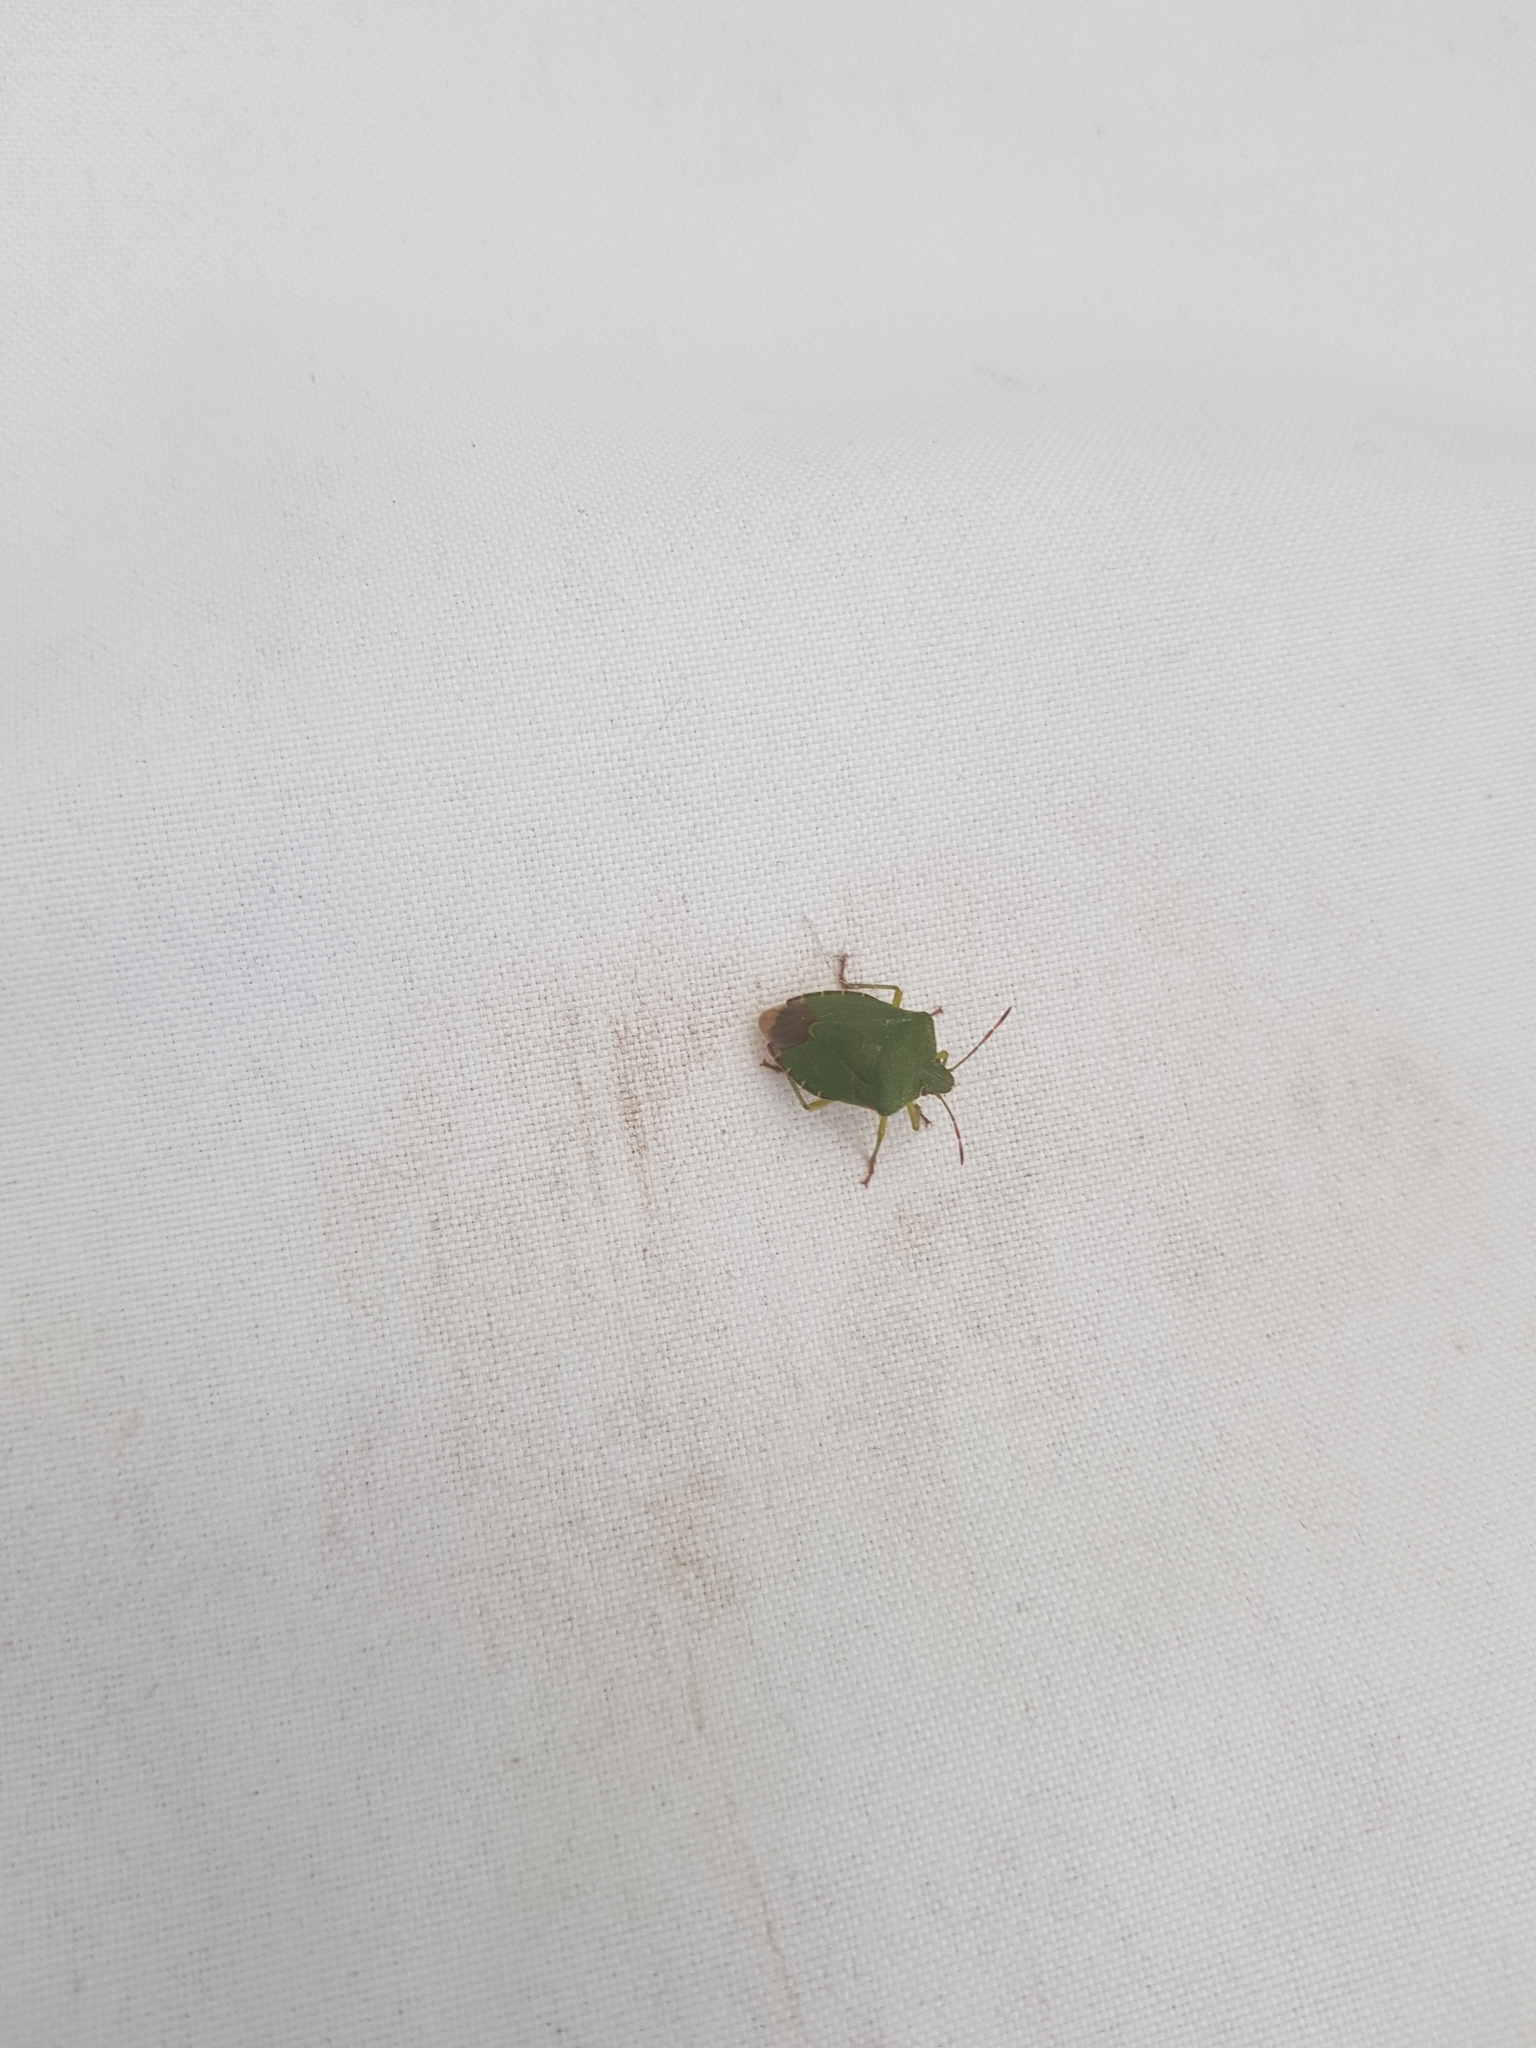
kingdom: Animalia
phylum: Arthropoda
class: Insecta
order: Hemiptera
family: Pentatomidae
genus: Palomena
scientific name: Palomena prasina
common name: Green shieldbug
